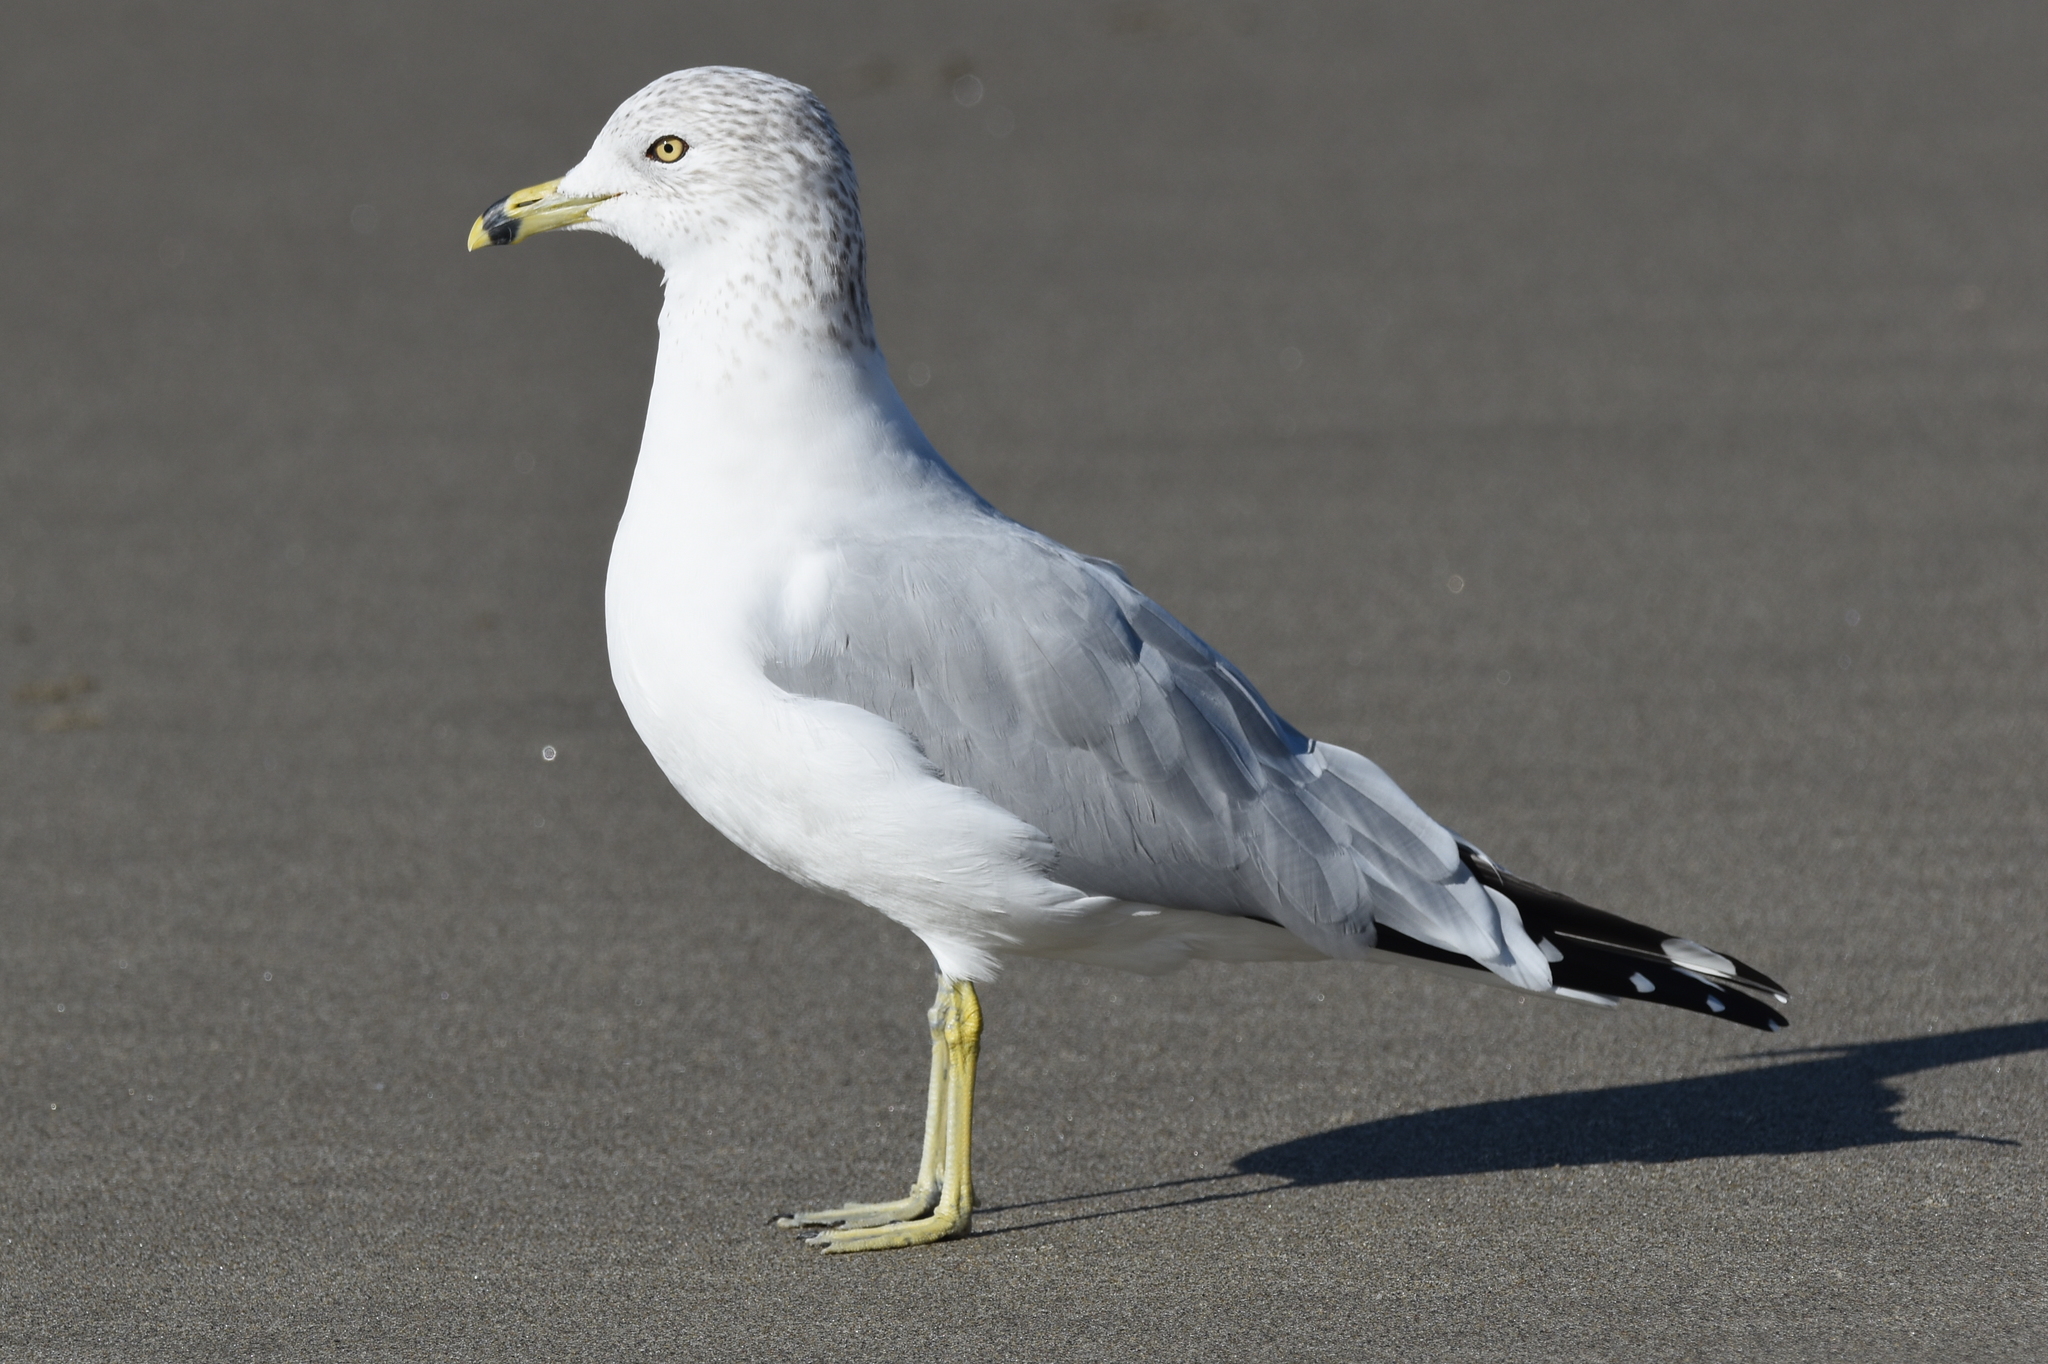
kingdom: Animalia
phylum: Chordata
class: Aves
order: Charadriiformes
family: Laridae
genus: Larus
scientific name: Larus delawarensis
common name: Ring-billed gull
